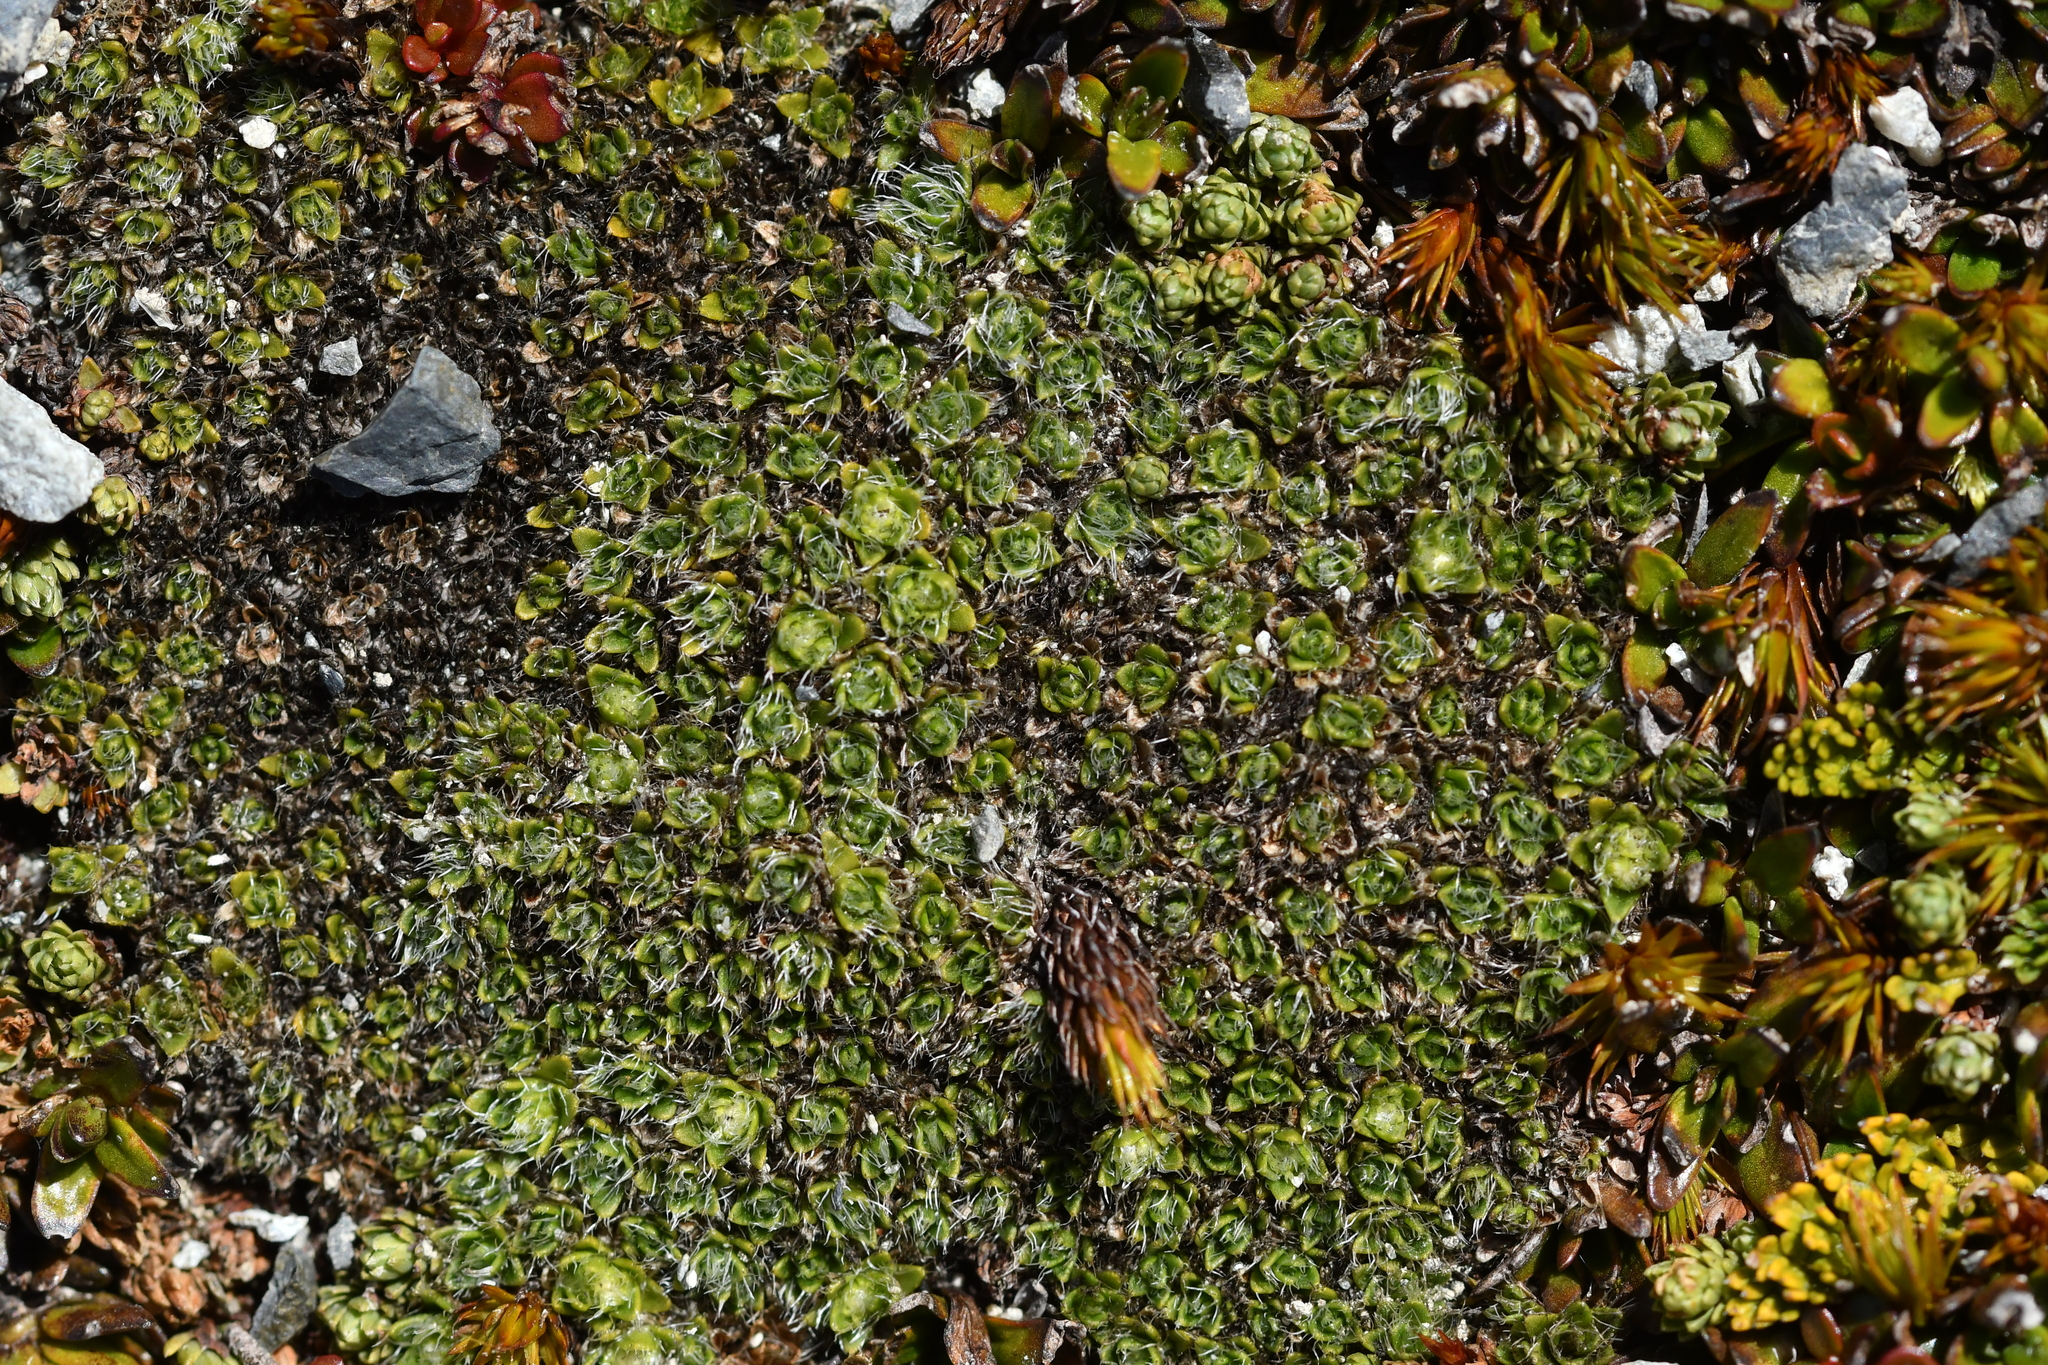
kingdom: Plantae
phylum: Tracheophyta
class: Magnoliopsida
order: Lamiales
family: Plantaginaceae
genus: Veronica
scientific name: Veronica pulvinaris
